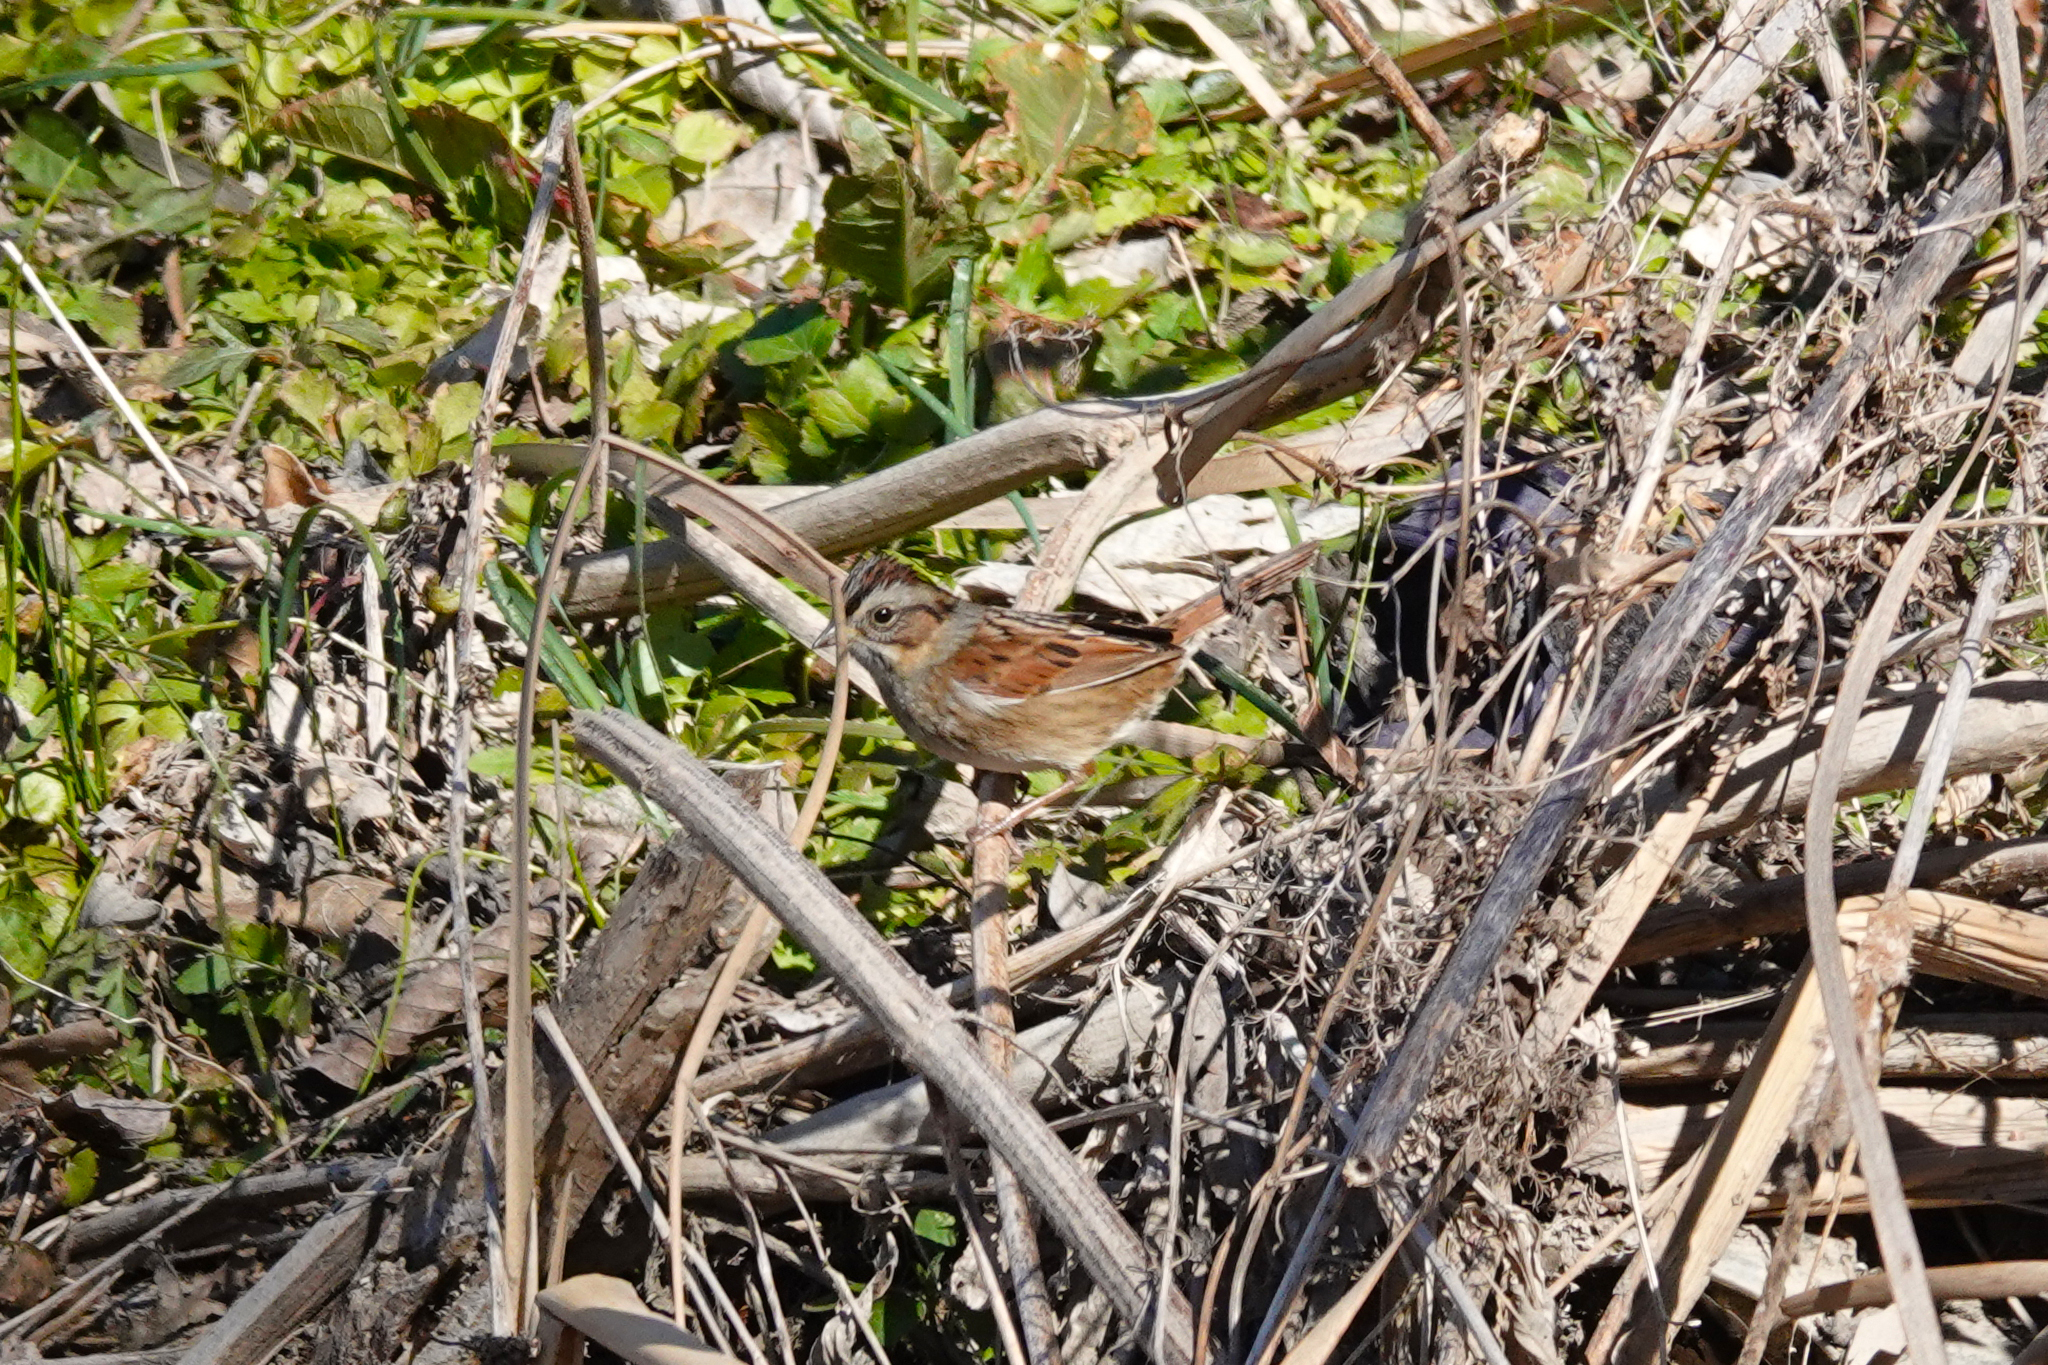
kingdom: Animalia
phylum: Chordata
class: Aves
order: Passeriformes
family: Passerellidae
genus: Melospiza
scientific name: Melospiza georgiana
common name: Swamp sparrow
